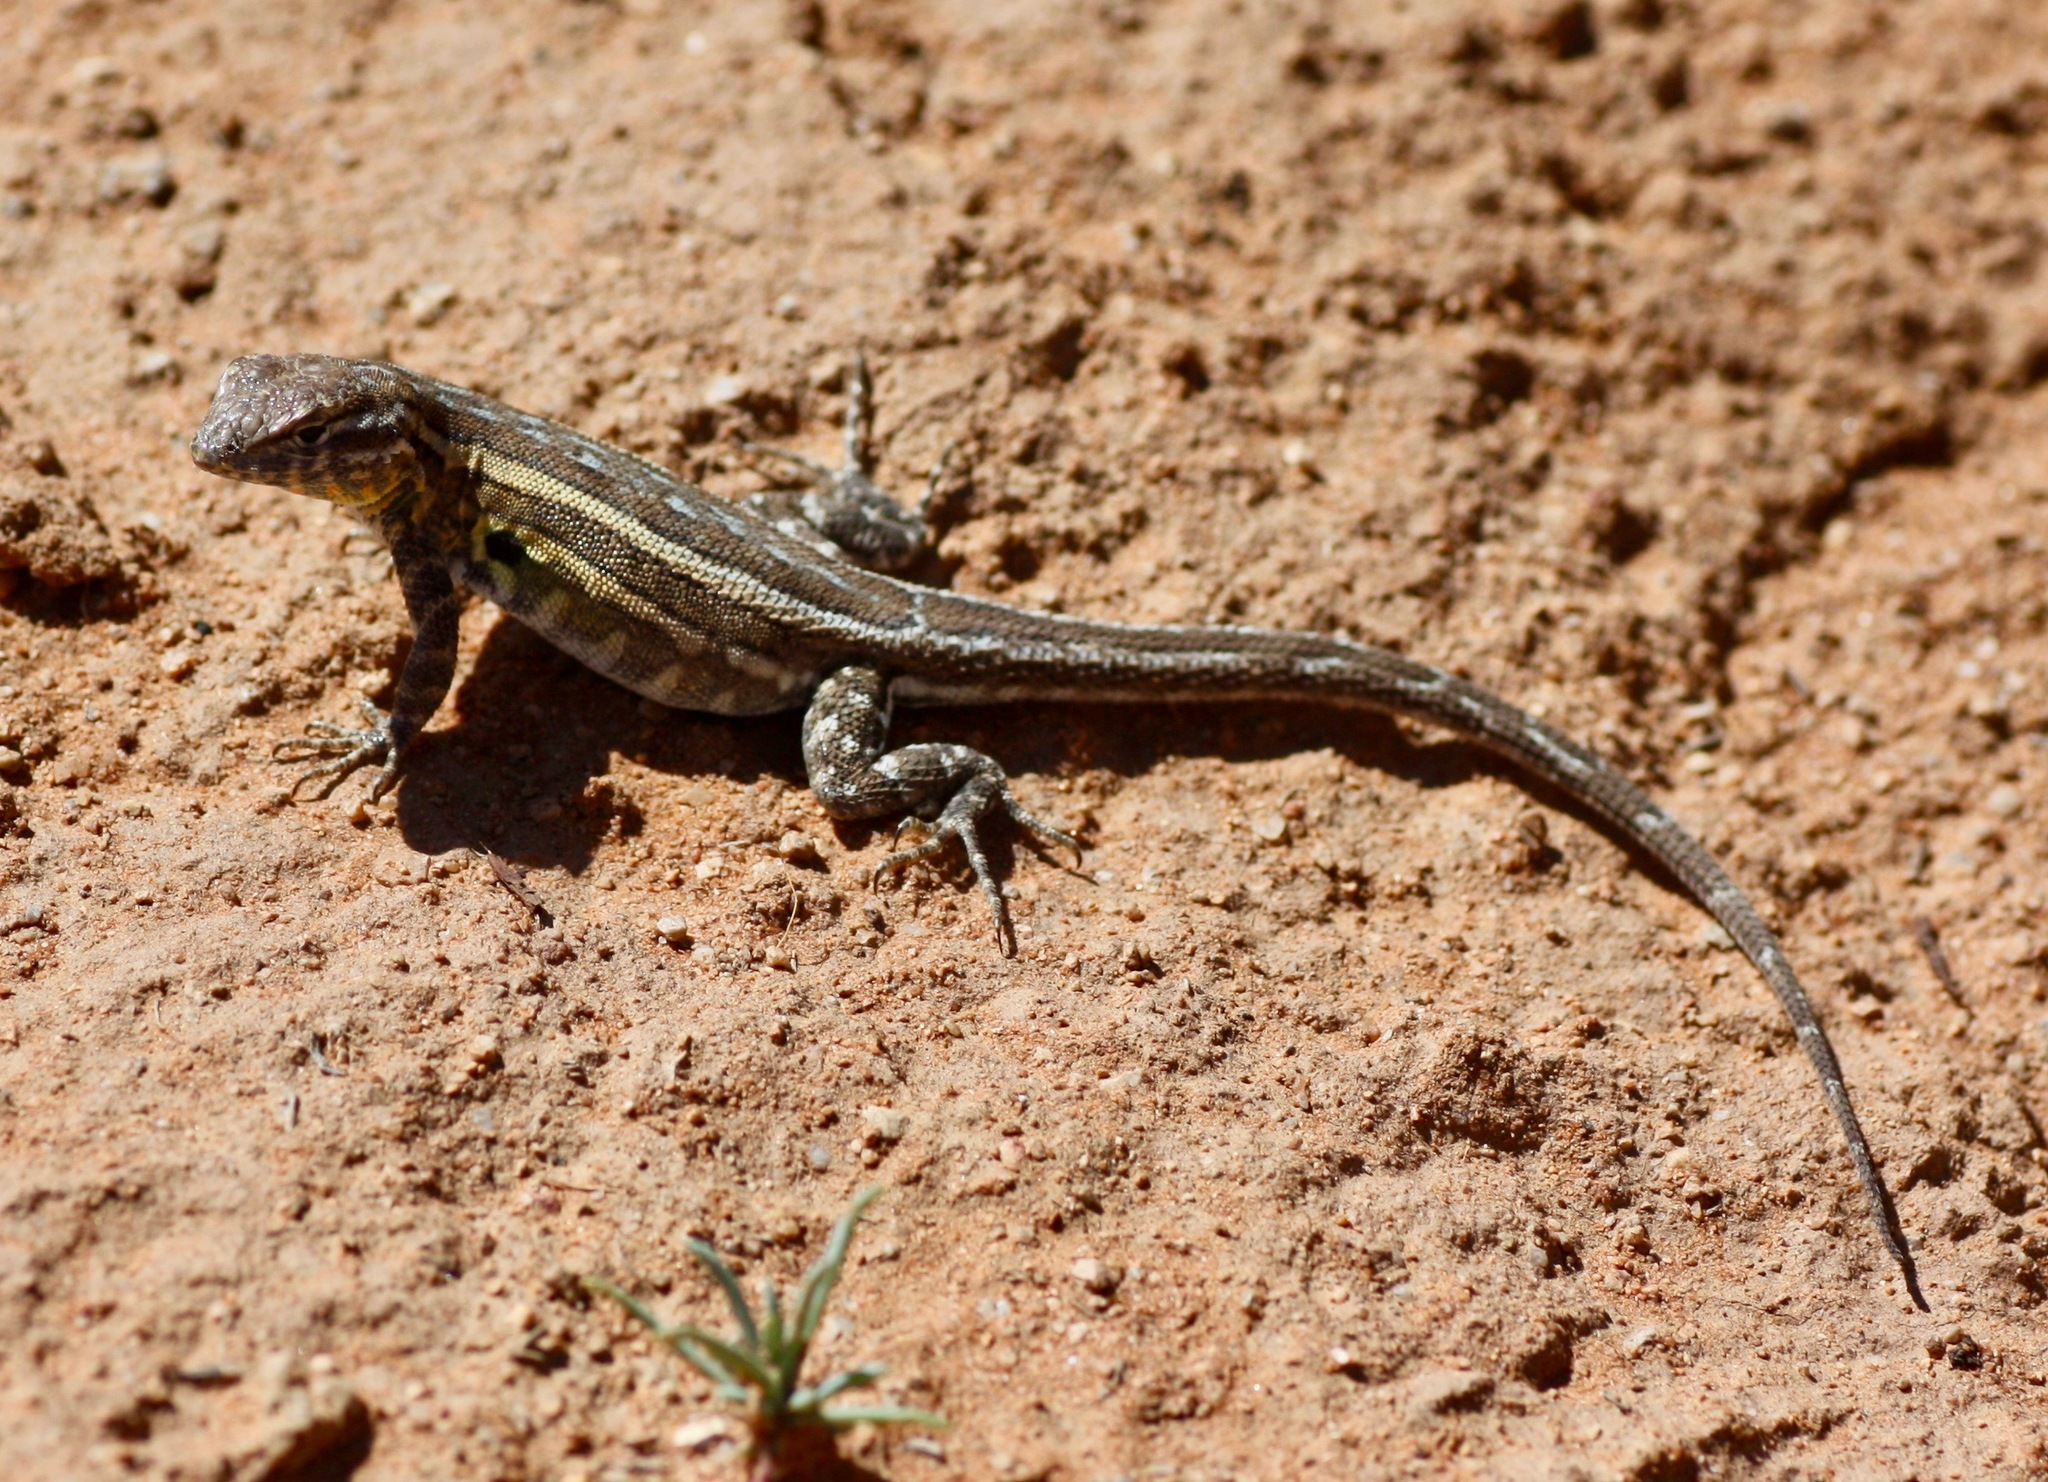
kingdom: Animalia
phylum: Chordata
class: Squamata
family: Phrynosomatidae
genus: Uta
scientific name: Uta stansburiana
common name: Side-blotched lizard
